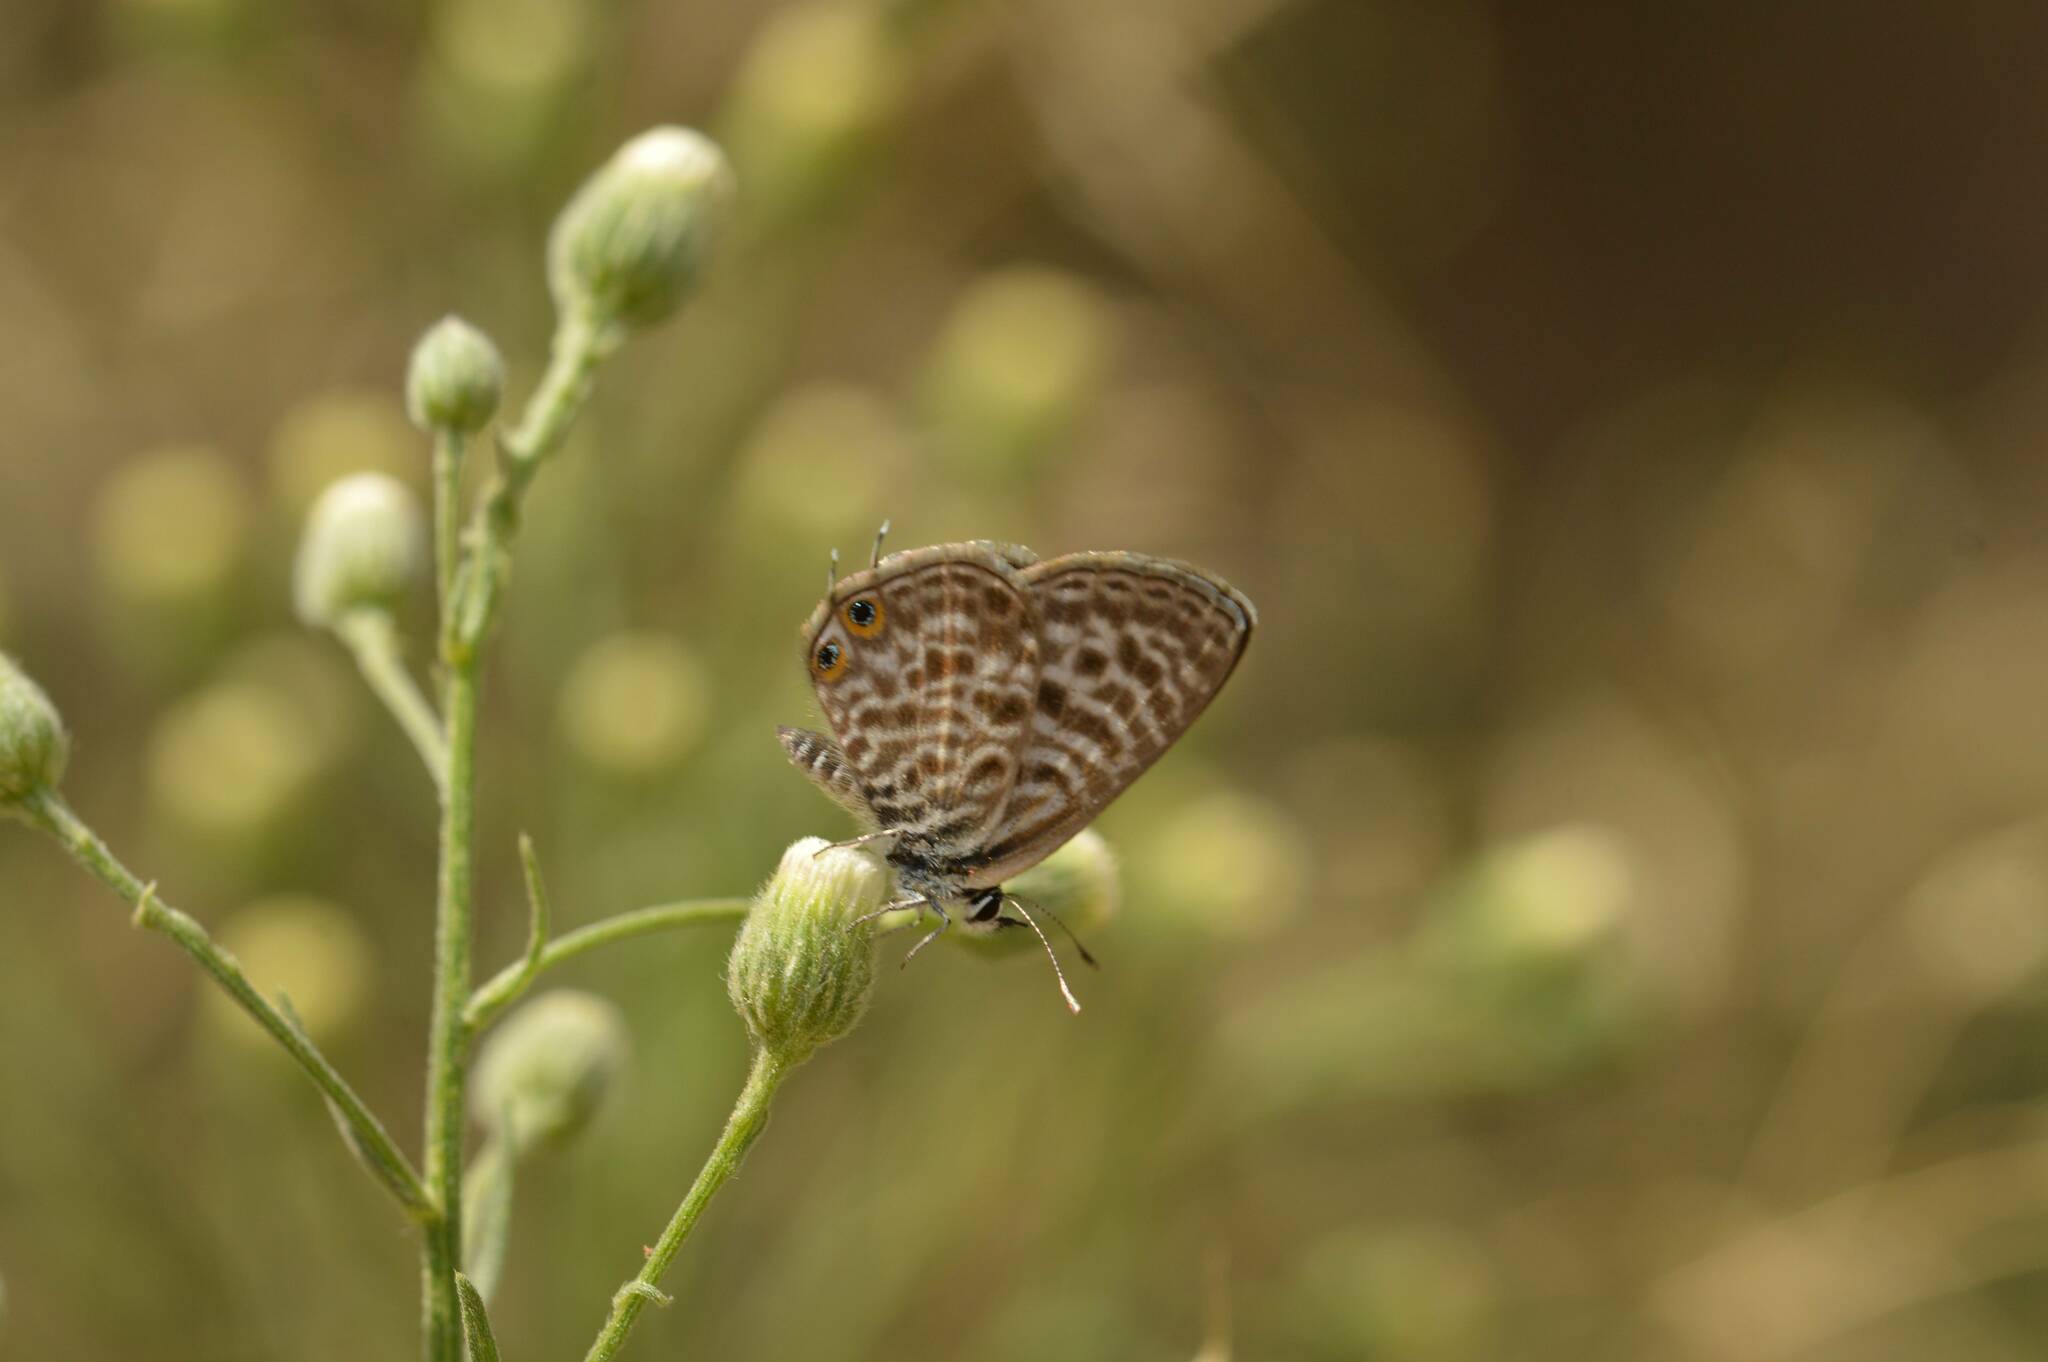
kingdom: Animalia
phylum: Arthropoda
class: Insecta
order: Lepidoptera
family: Lycaenidae
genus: Leptotes
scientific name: Leptotes pirithous
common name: Lang's short-tailed blue
